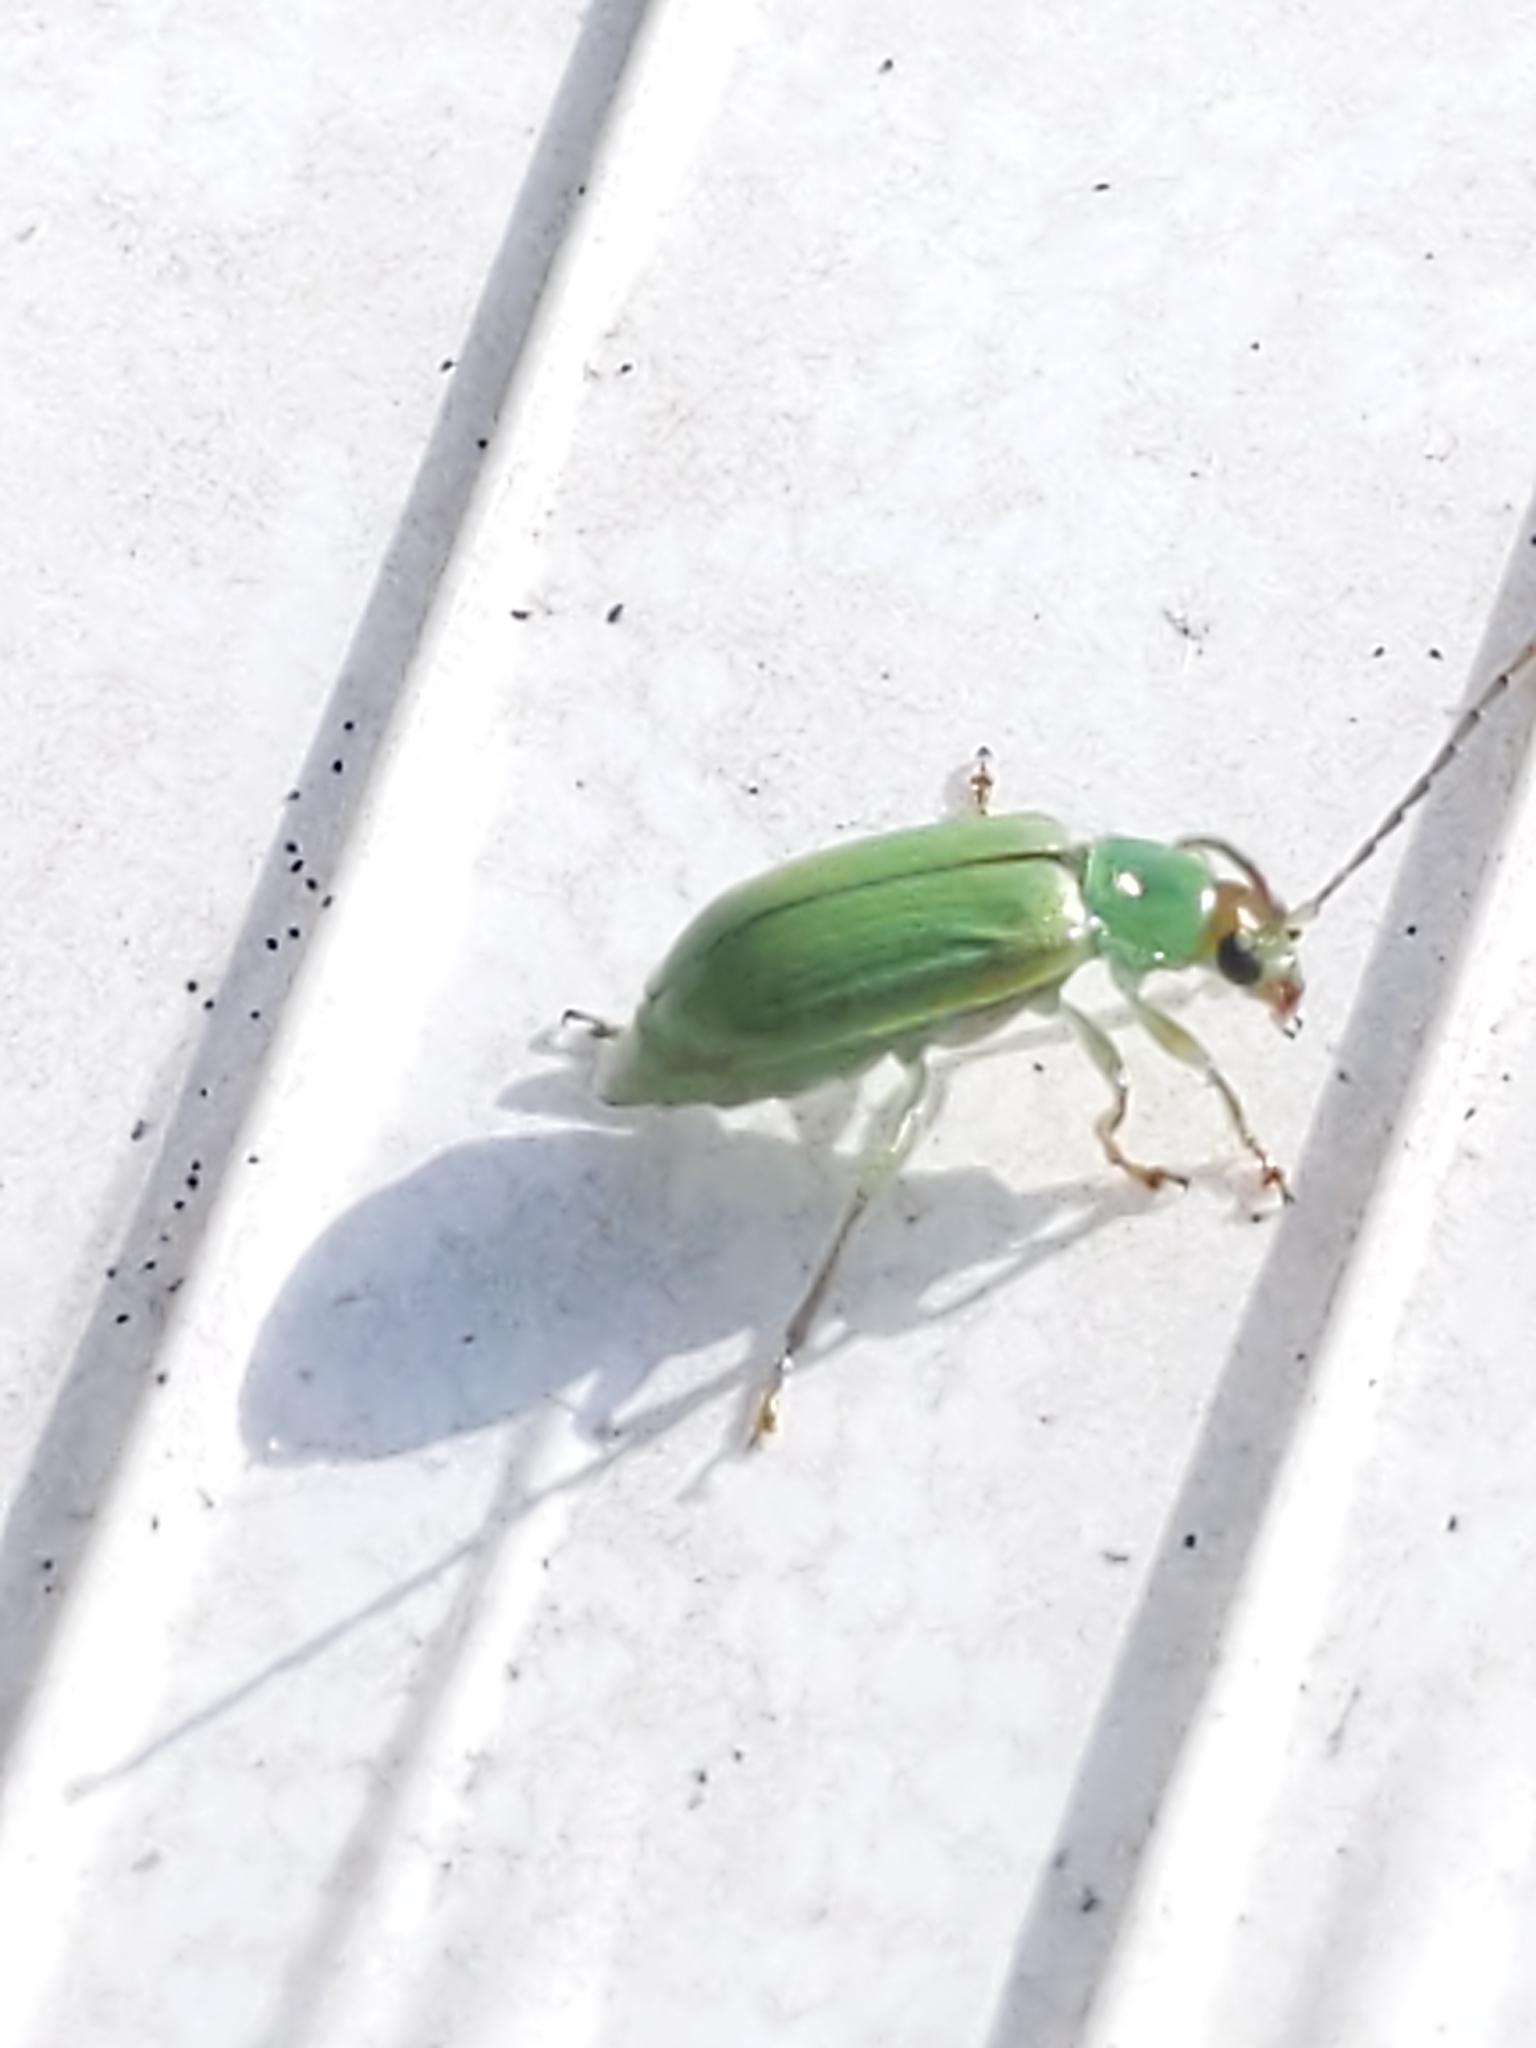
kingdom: Animalia
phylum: Arthropoda
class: Insecta
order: Coleoptera
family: Chrysomelidae
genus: Diabrotica
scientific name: Diabrotica barberi
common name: Northern corn rootworm
